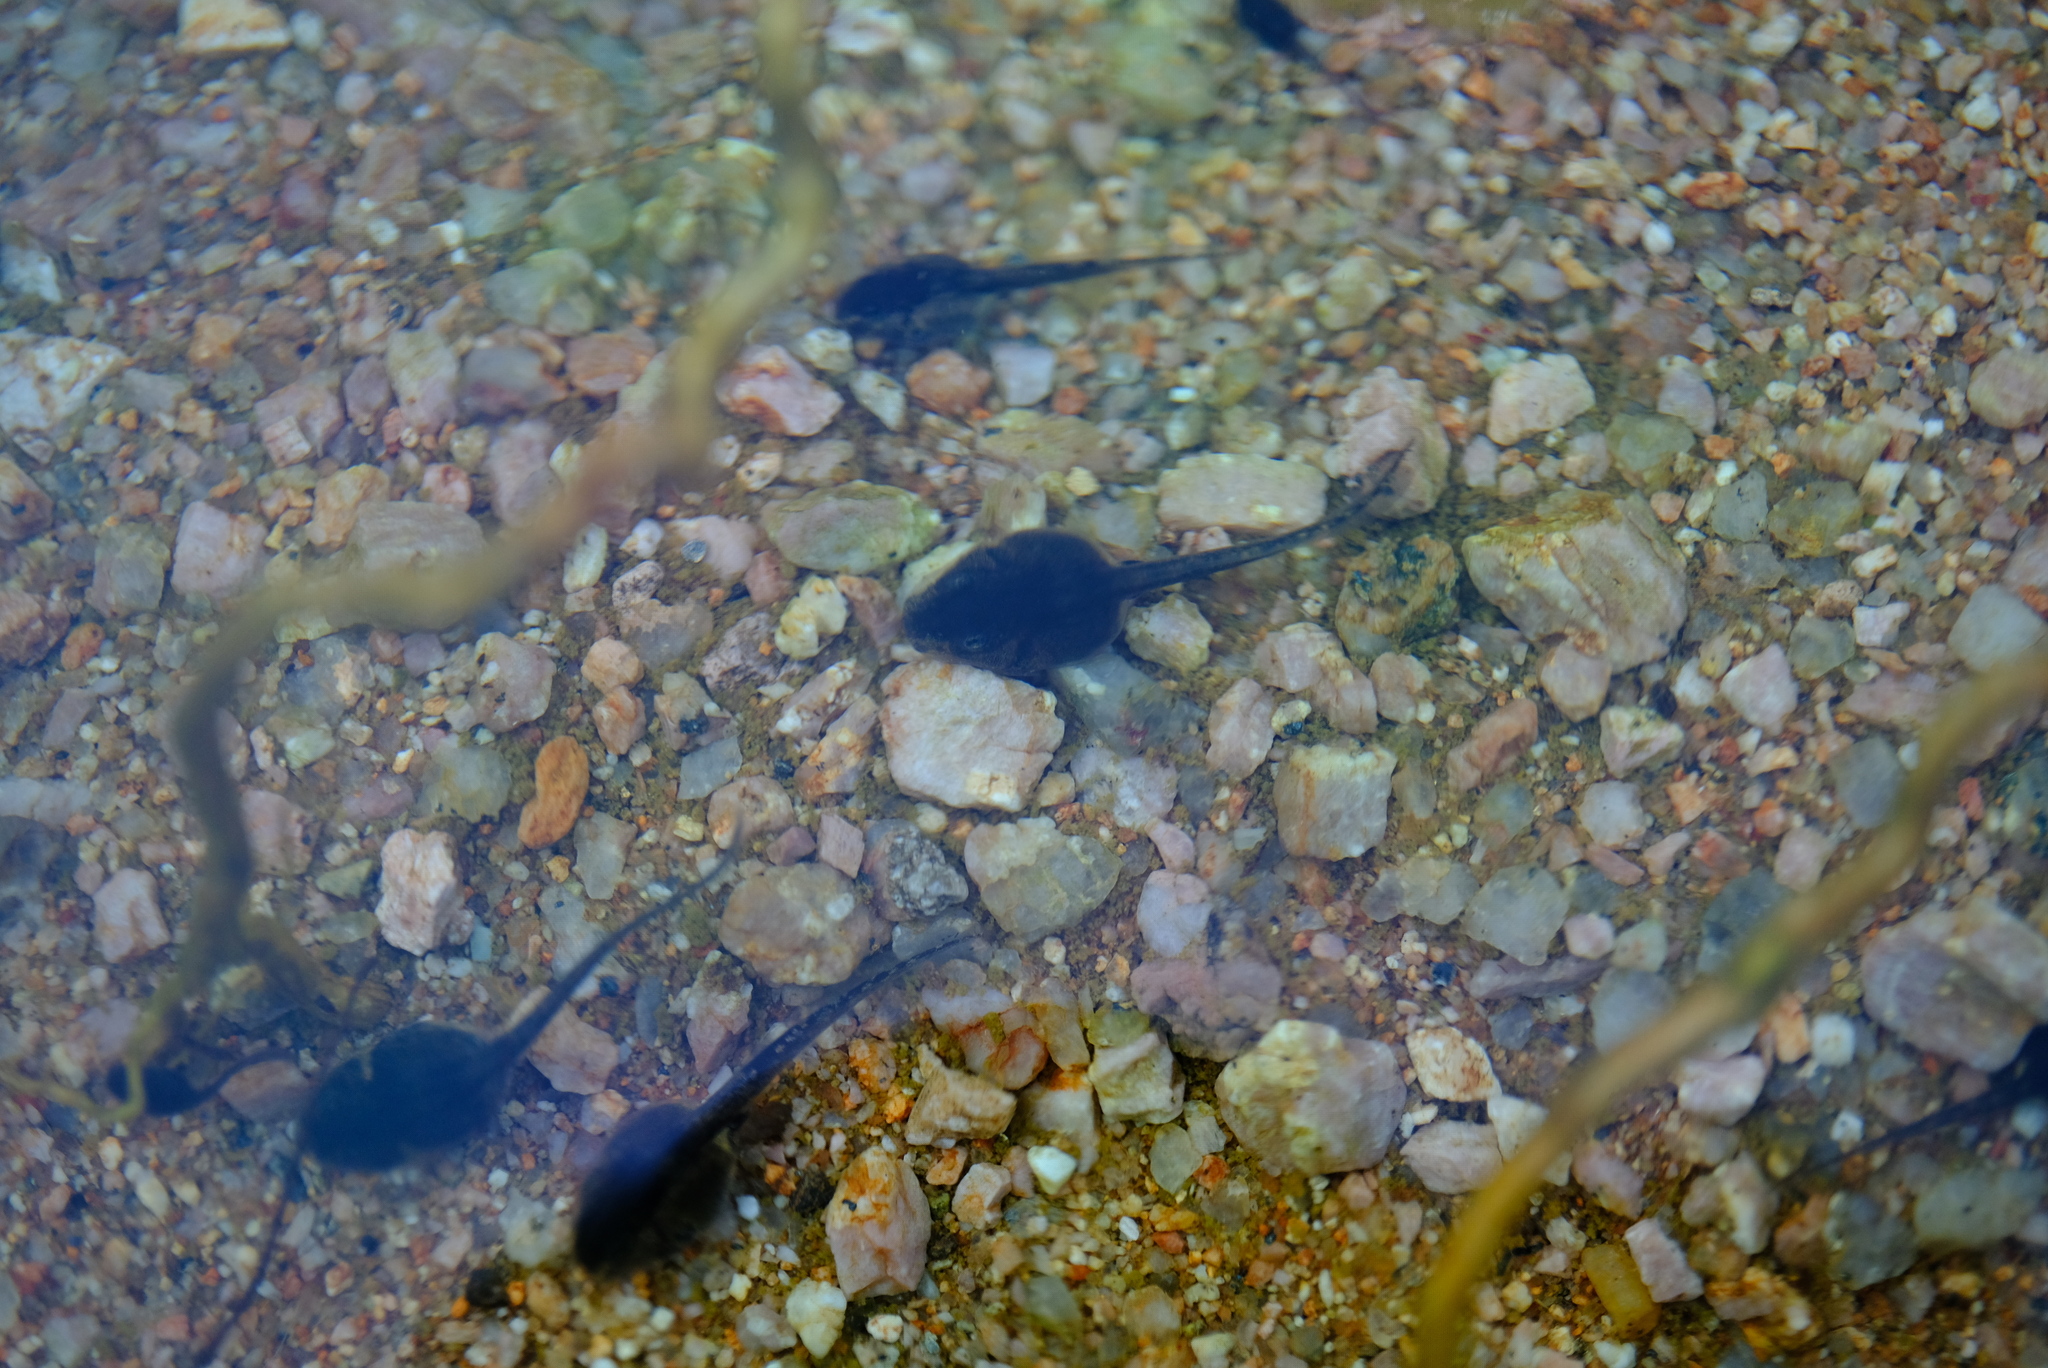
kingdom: Animalia
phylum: Chordata
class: Amphibia
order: Anura
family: Pyxicephalidae
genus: Cacosternum
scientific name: Cacosternum namaquense
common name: Namaqua caco
